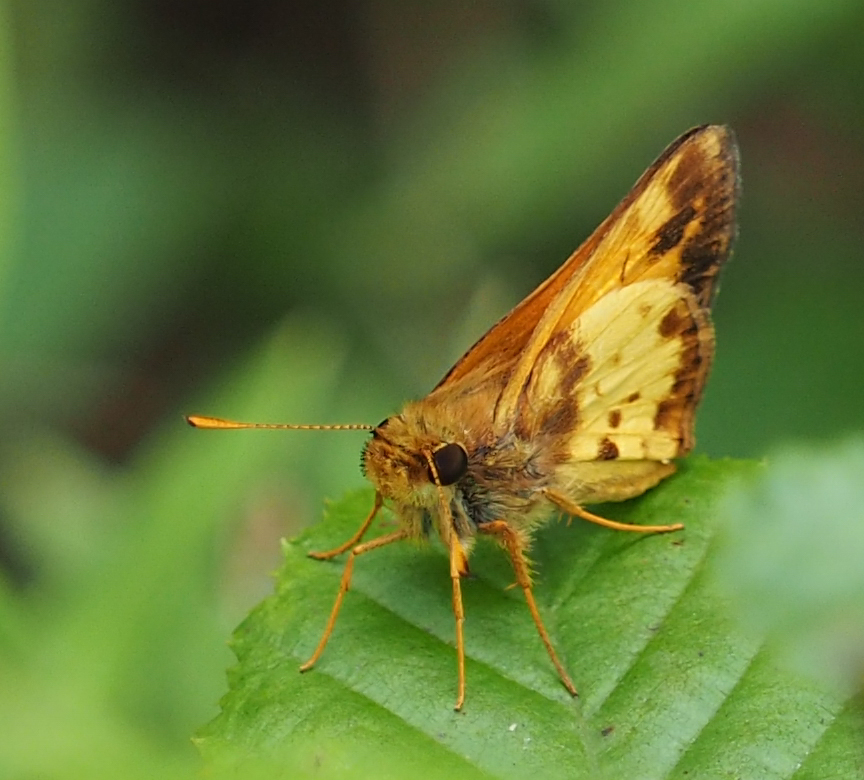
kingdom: Animalia
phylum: Arthropoda
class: Insecta
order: Lepidoptera
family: Hesperiidae
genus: Lon
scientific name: Lon zabulon
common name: Zabulon skipper
